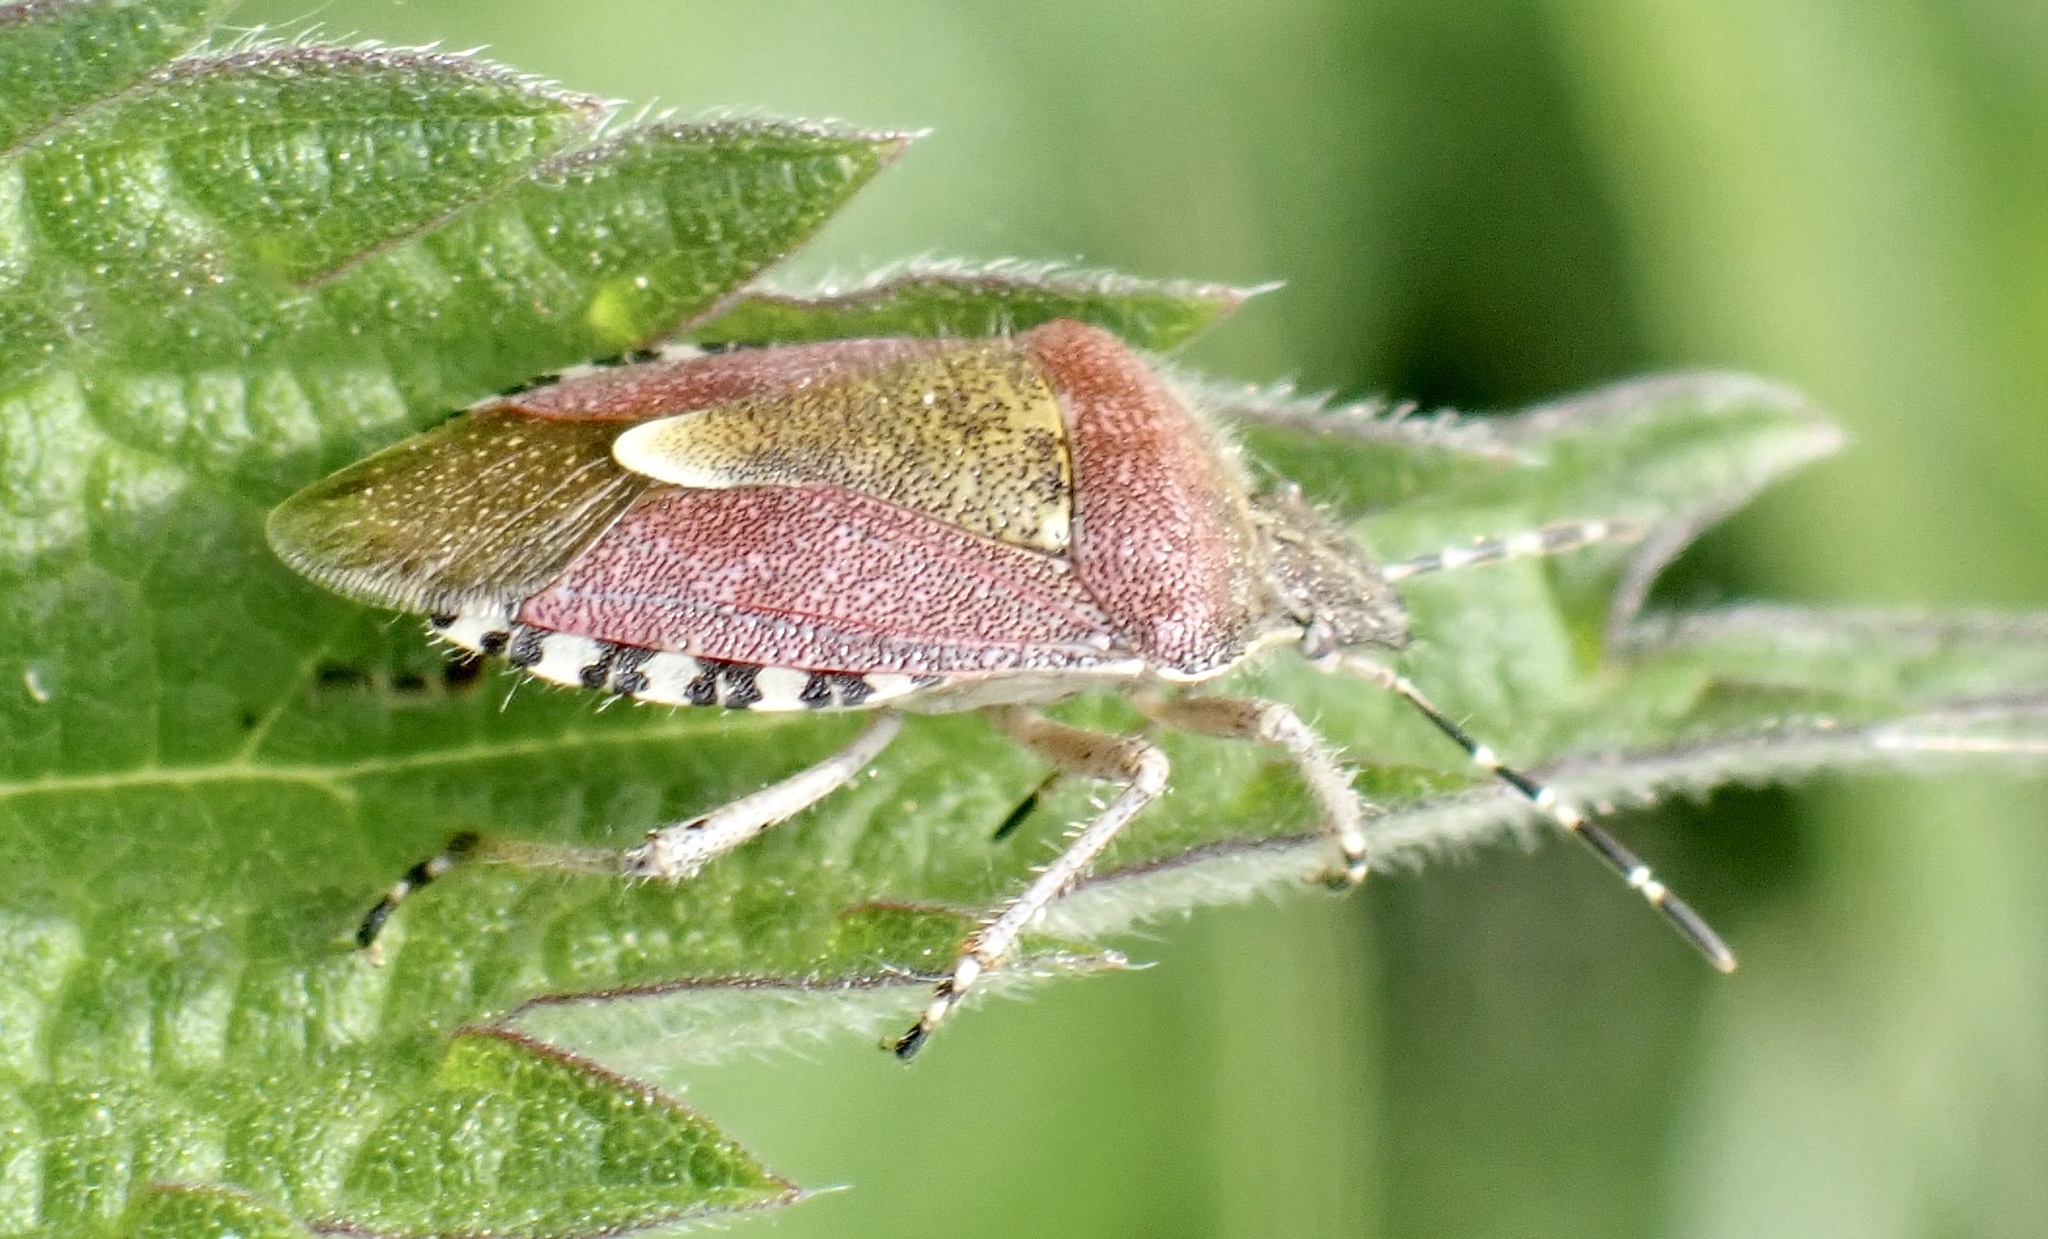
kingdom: Animalia
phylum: Arthropoda
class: Insecta
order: Hemiptera
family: Pentatomidae
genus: Dolycoris
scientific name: Dolycoris baccarum
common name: Sloe bug
